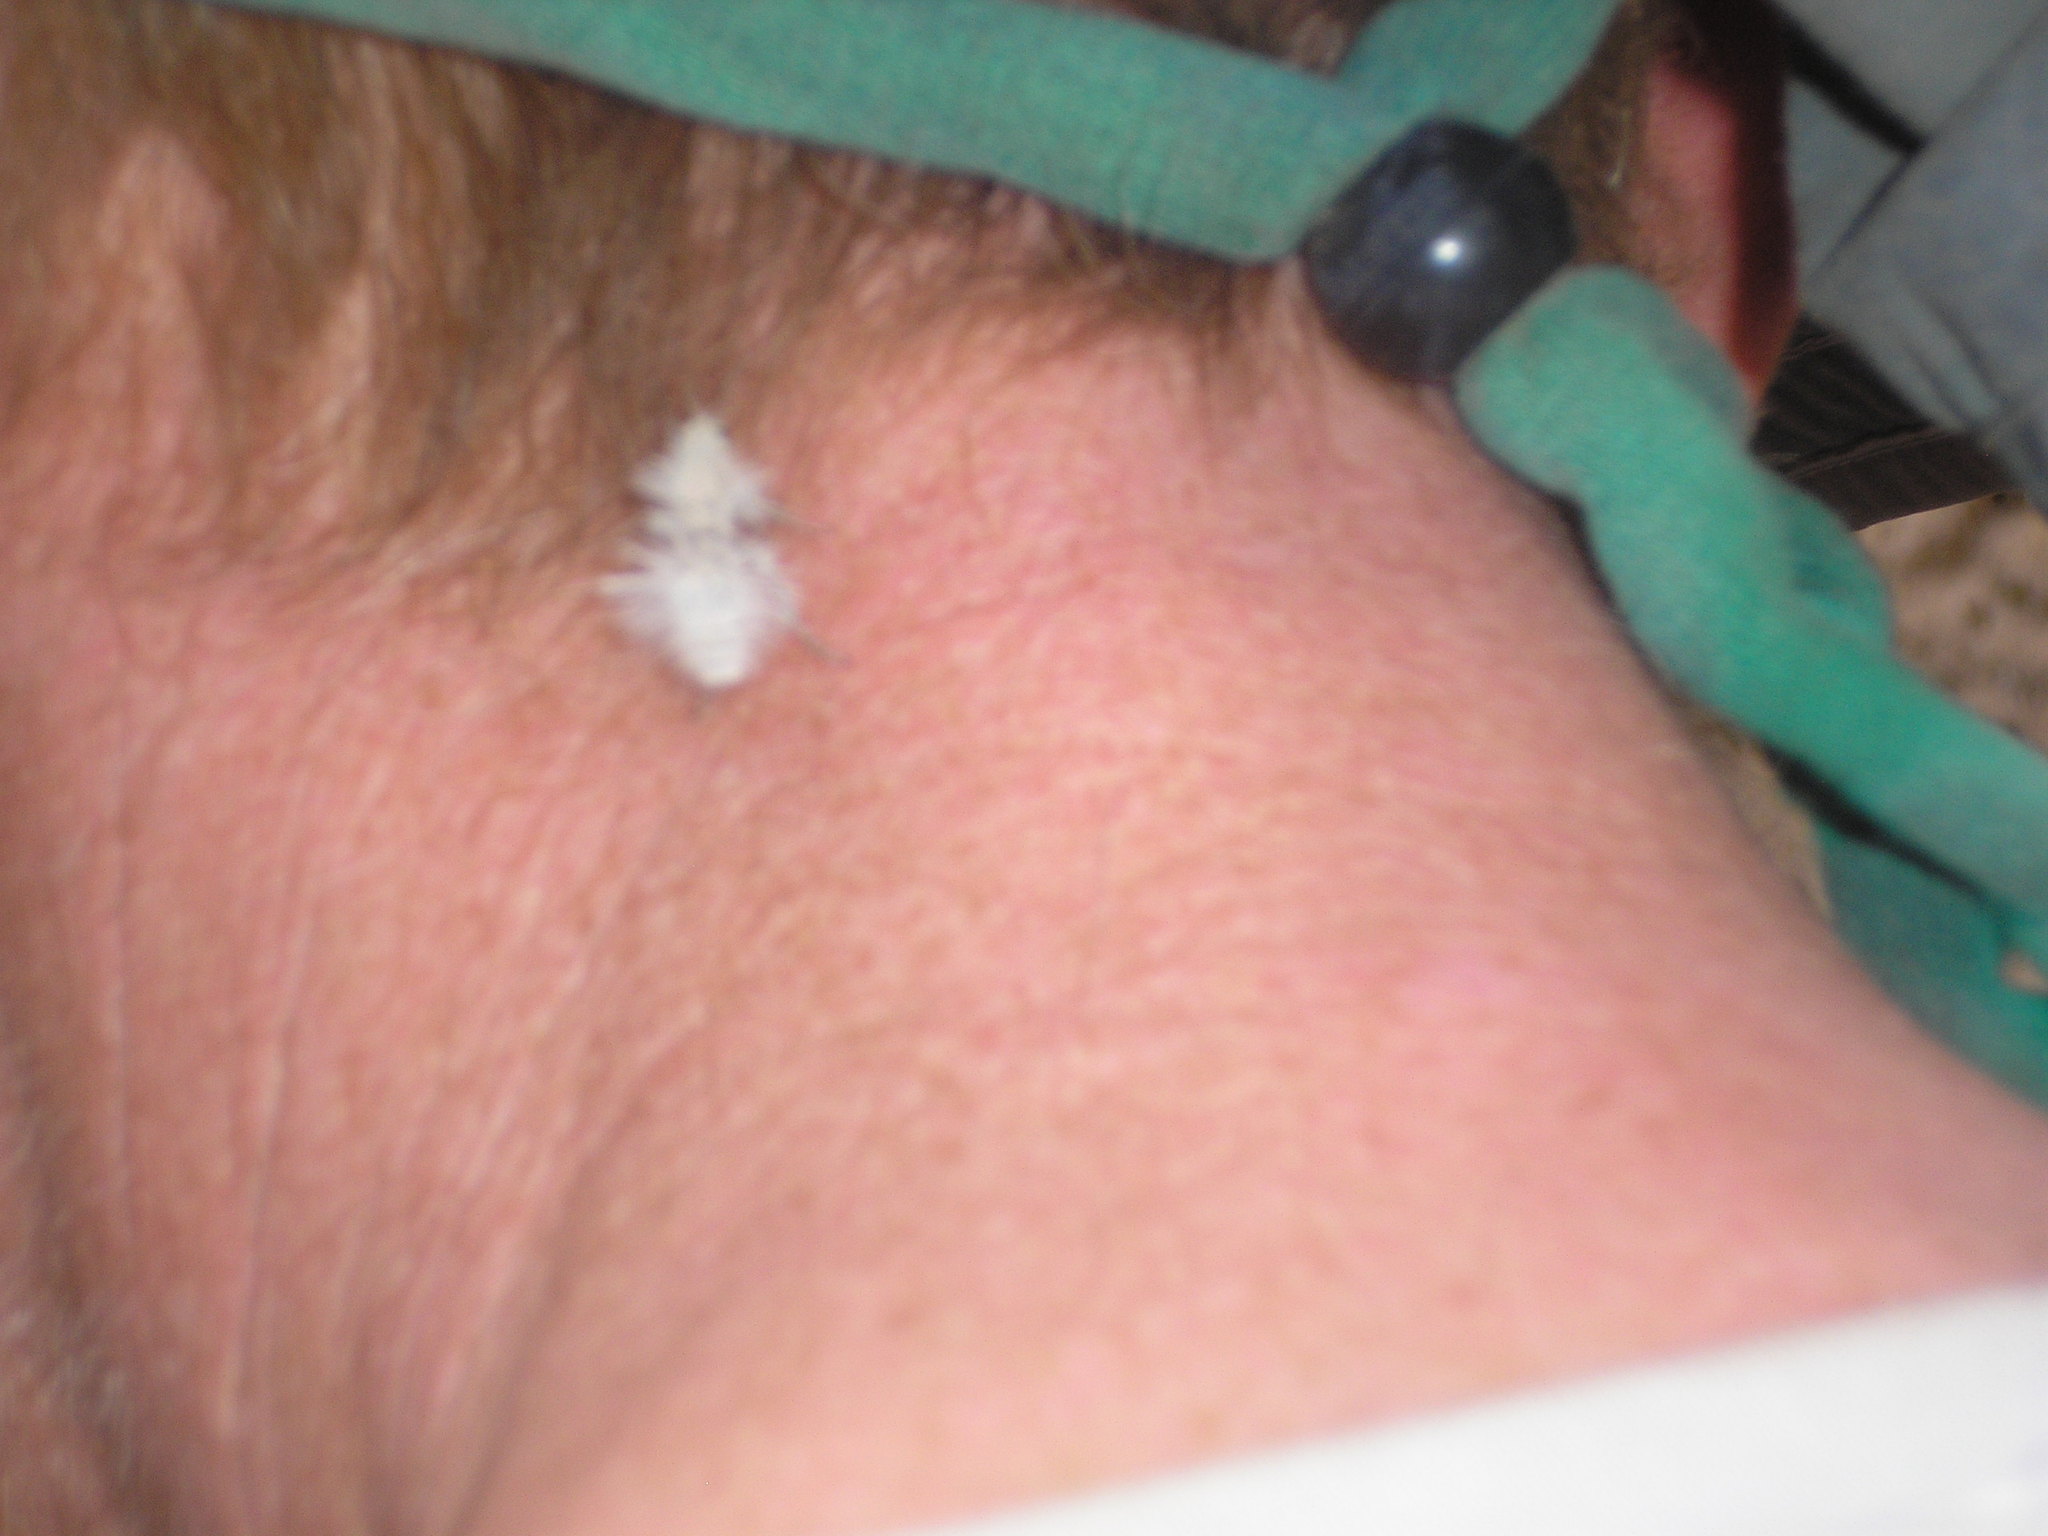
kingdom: Animalia
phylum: Arthropoda
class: Insecta
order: Hymenoptera
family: Mutillidae
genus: Dasymutilla
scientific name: Dasymutilla gloriosa
